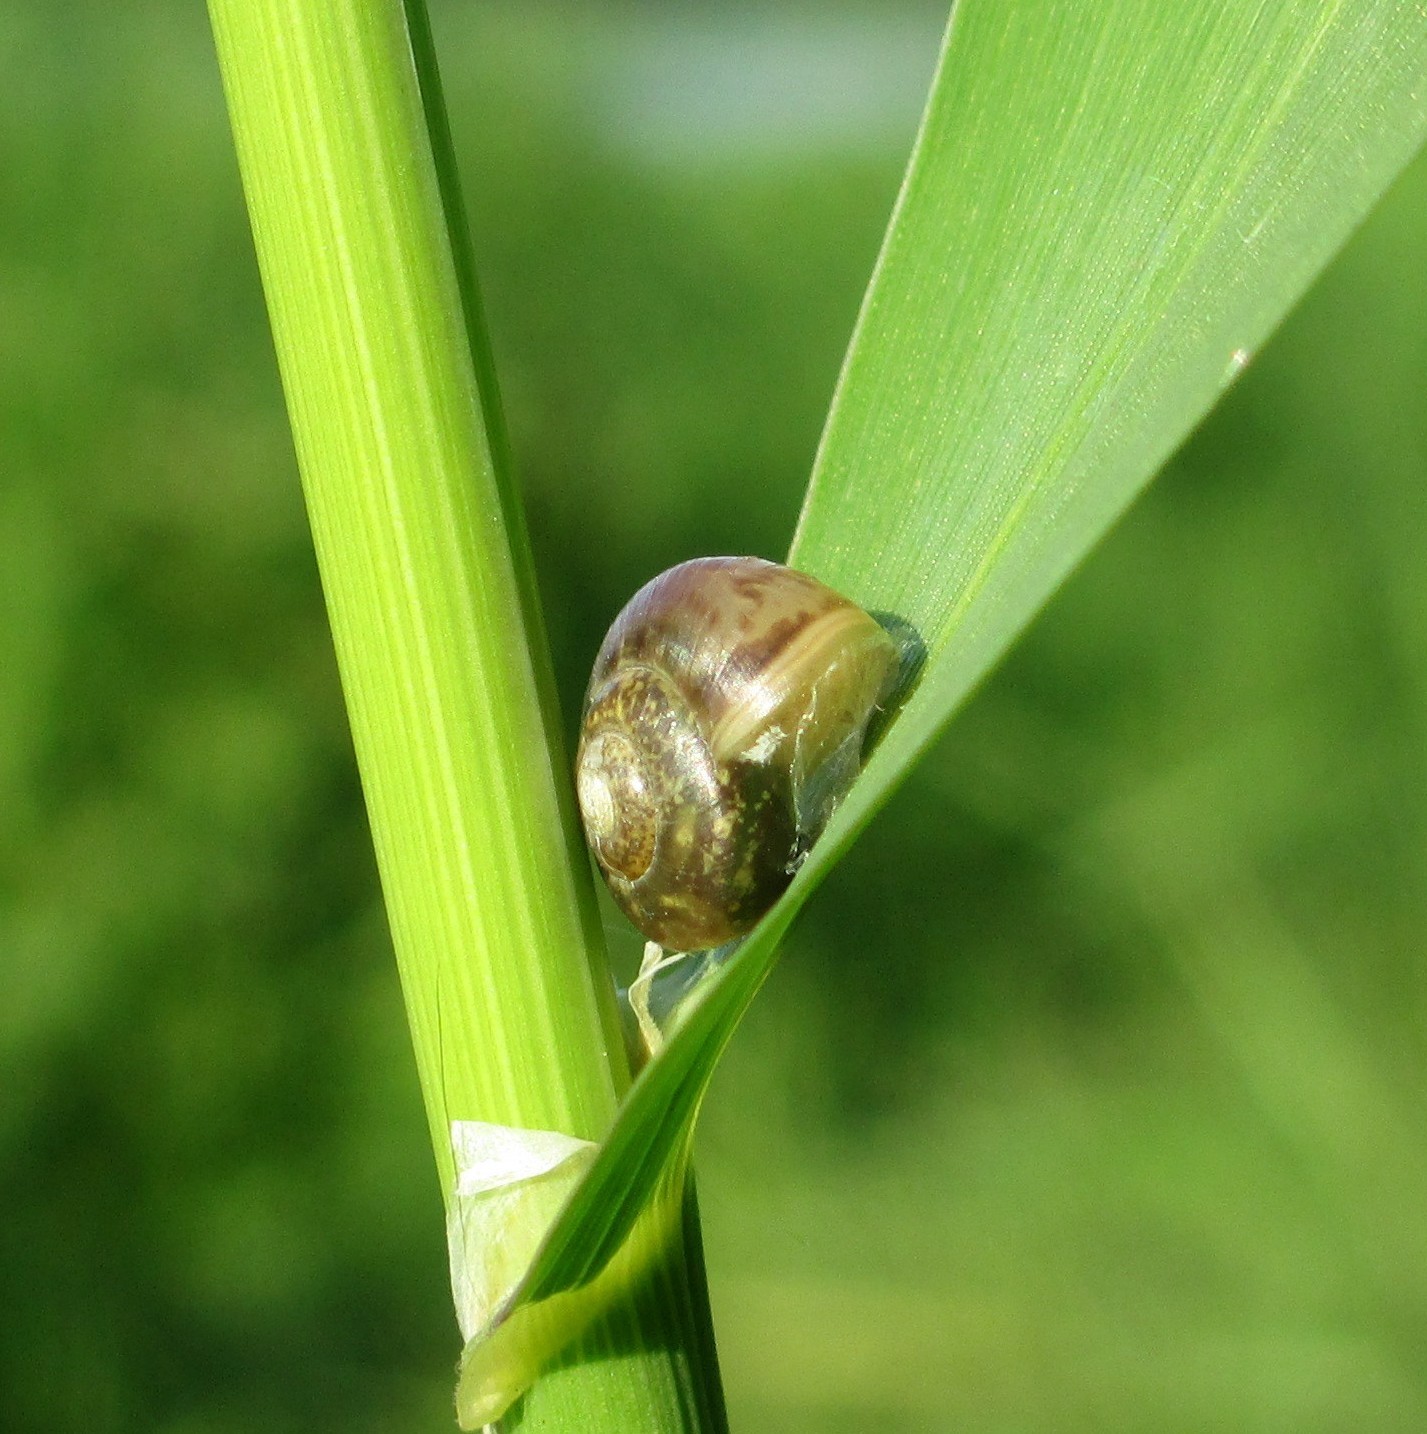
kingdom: Animalia
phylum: Mollusca
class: Gastropoda
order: Stylommatophora
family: Camaenidae
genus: Fruticicola
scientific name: Fruticicola fruticum
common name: Bush snail
